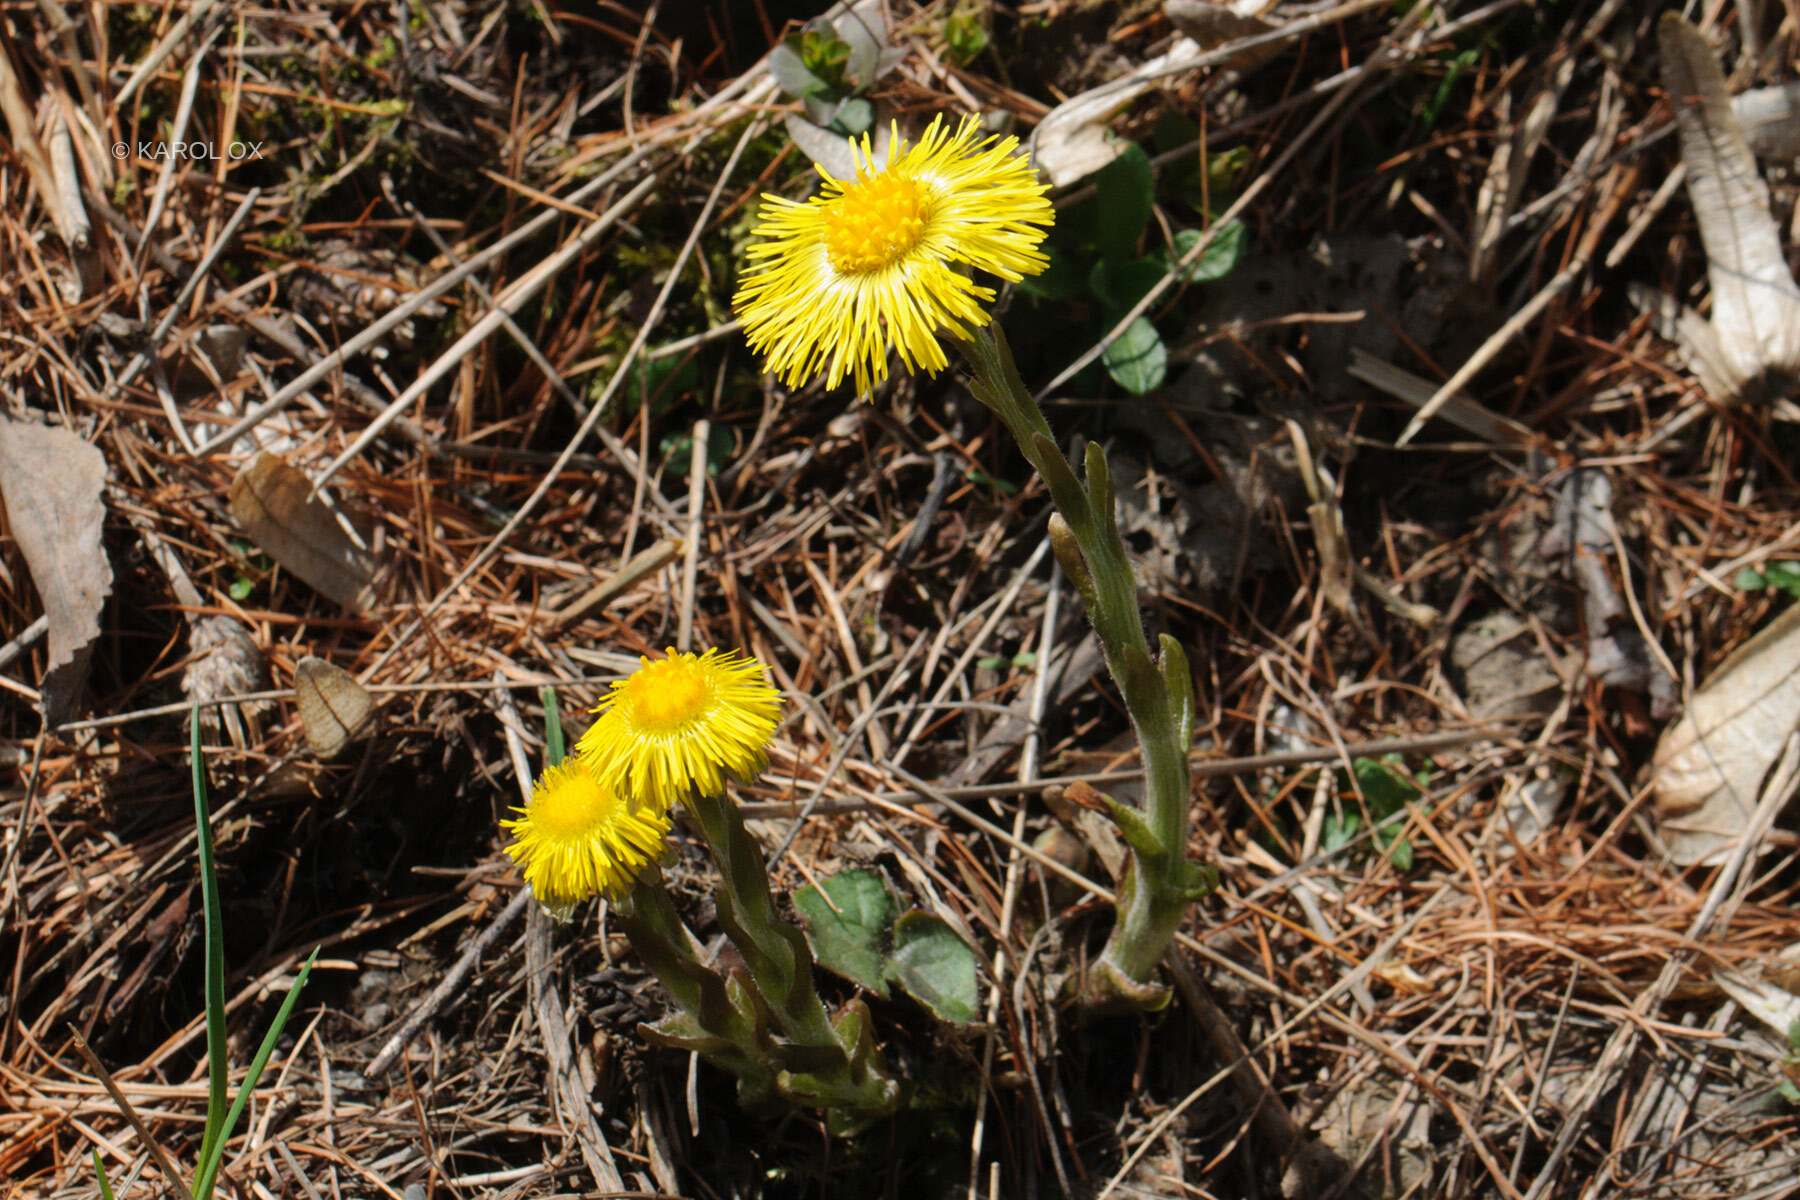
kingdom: Plantae
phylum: Tracheophyta
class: Magnoliopsida
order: Asterales
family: Asteraceae
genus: Tussilago
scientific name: Tussilago farfara
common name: Coltsfoot
